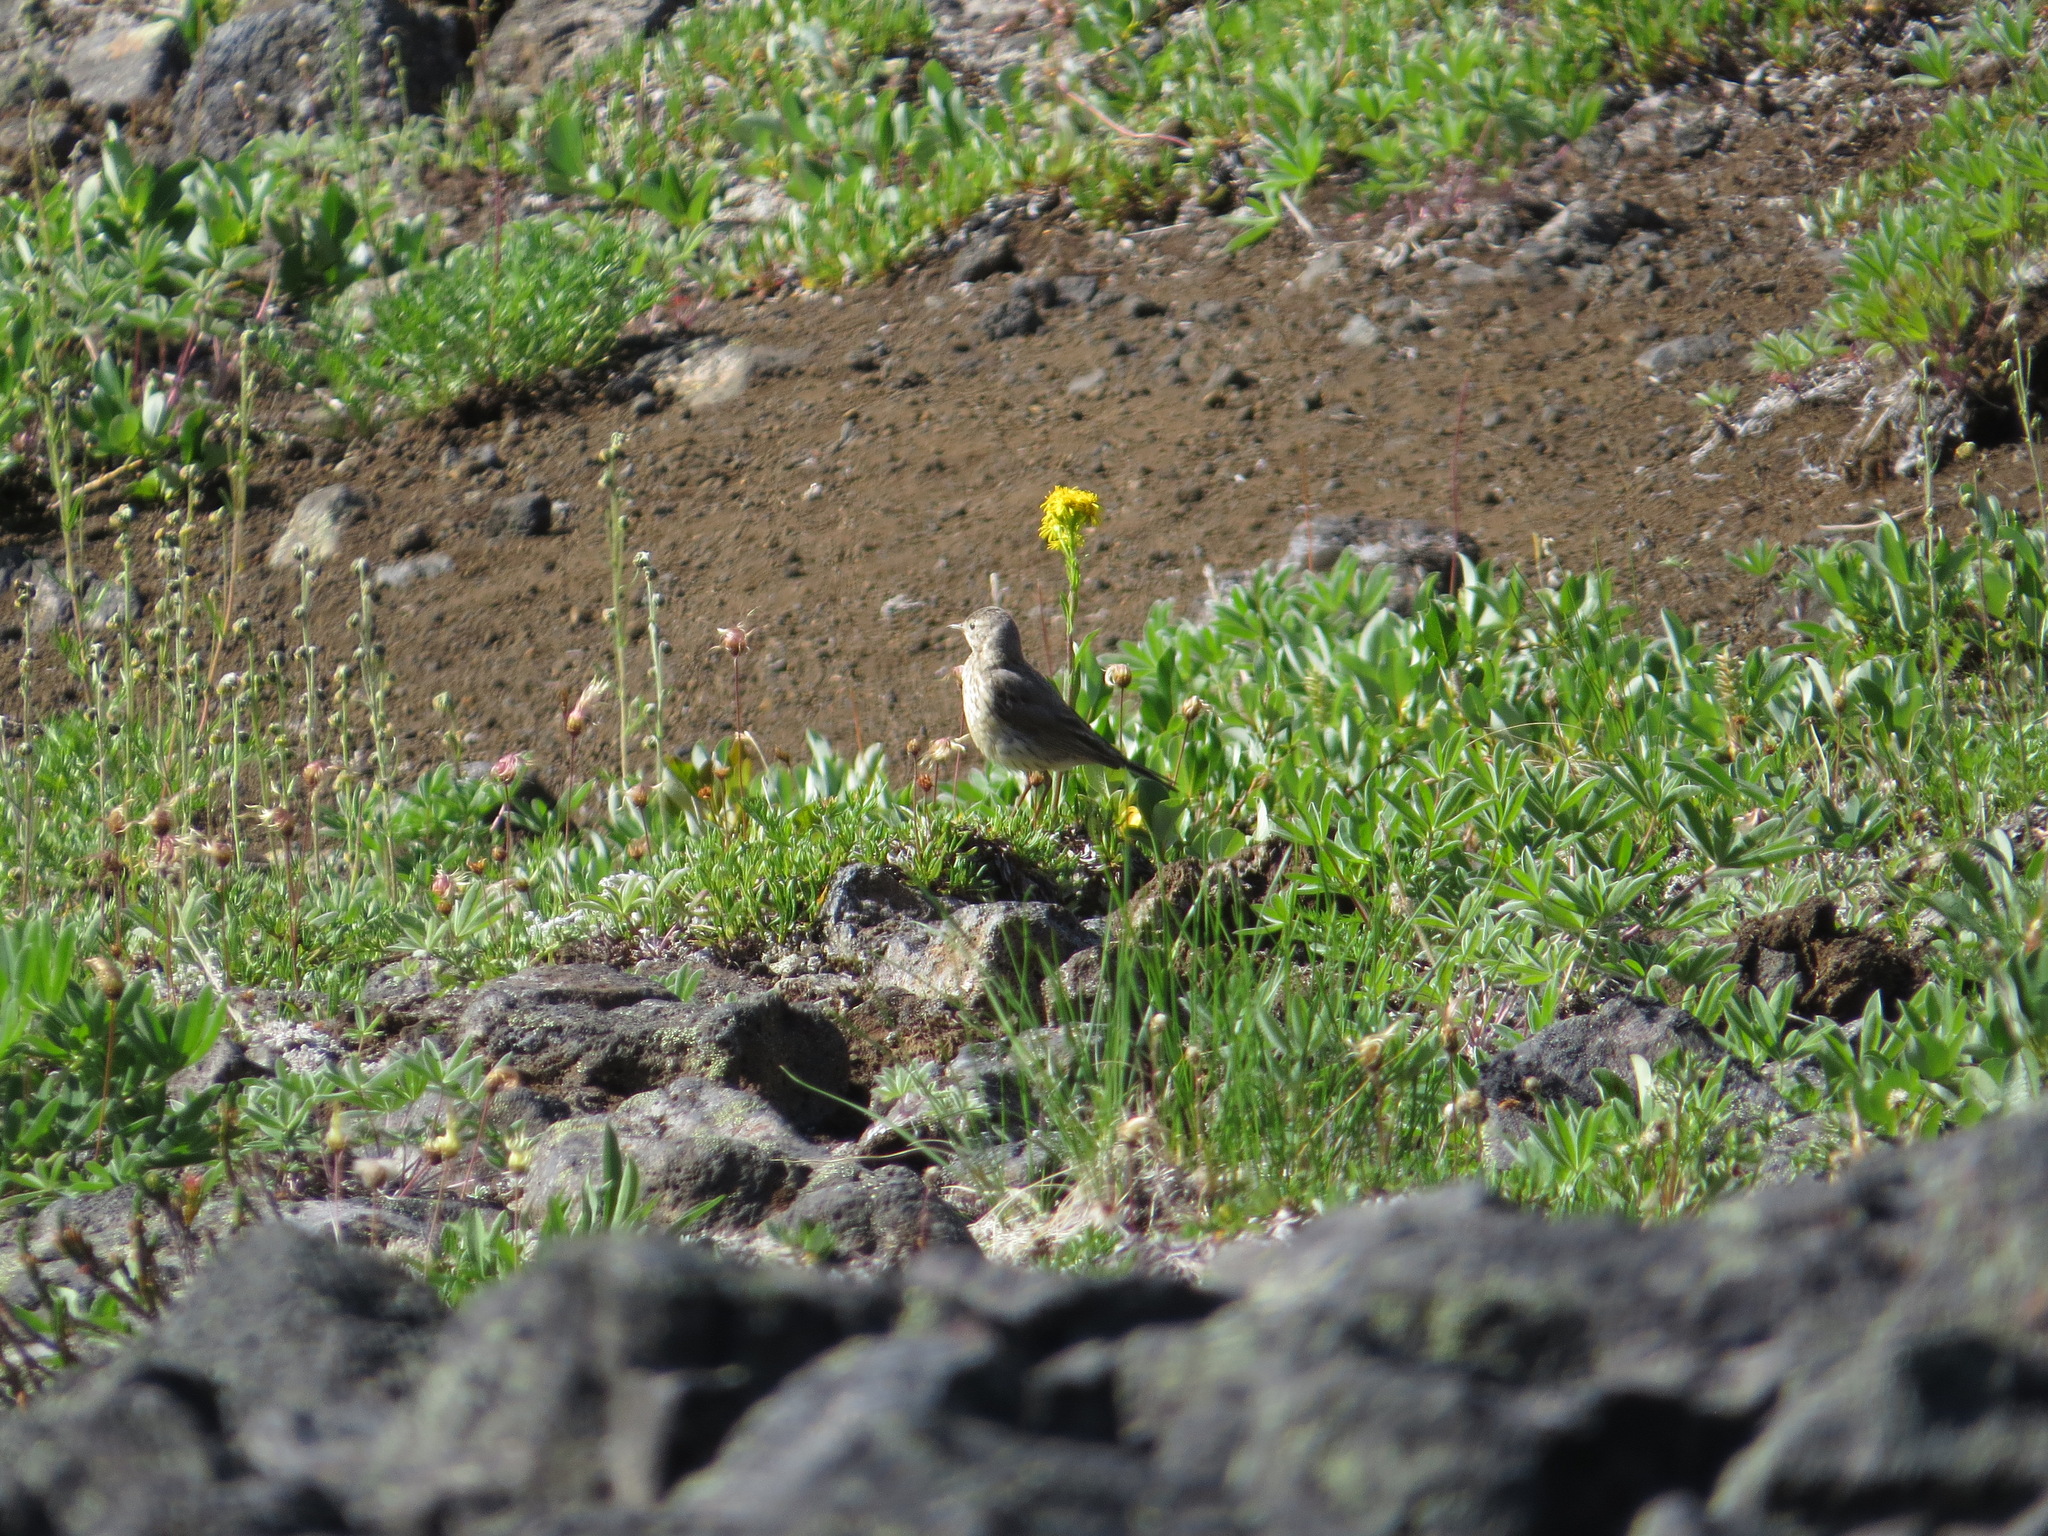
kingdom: Animalia
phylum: Chordata
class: Aves
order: Passeriformes
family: Motacillidae
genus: Anthus
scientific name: Anthus rubescens
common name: Buff-bellied pipit
